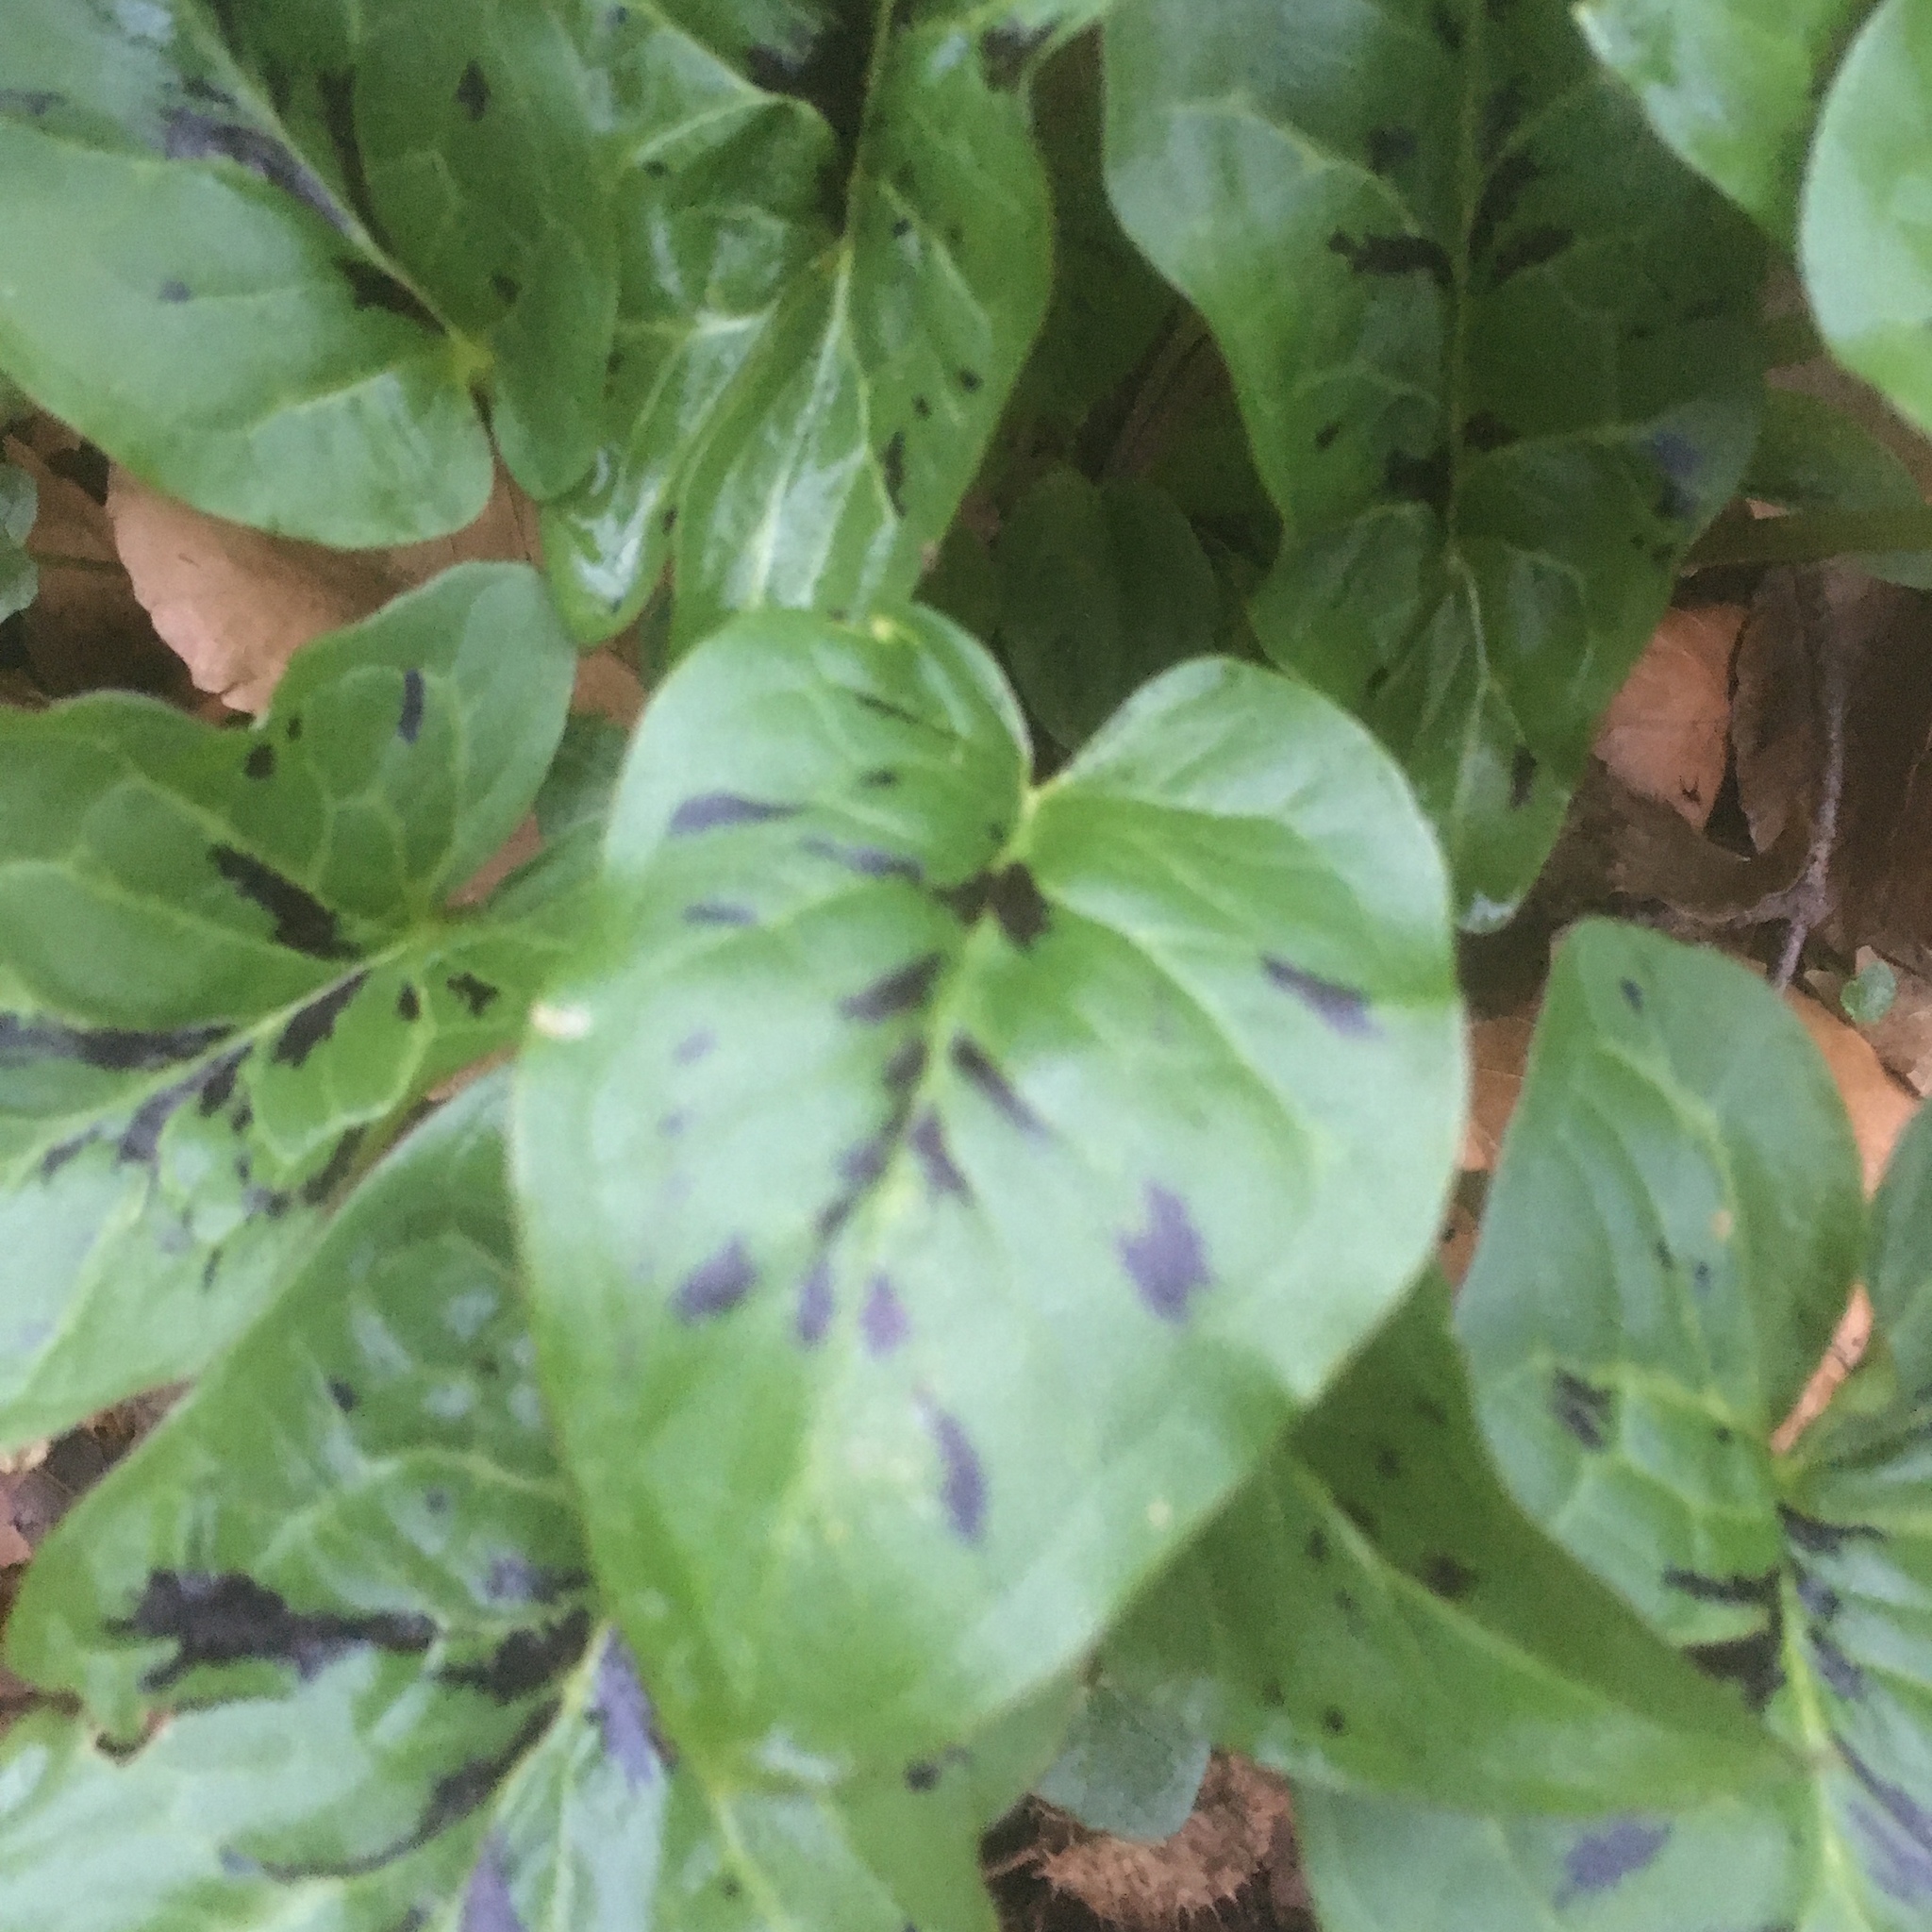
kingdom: Plantae
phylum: Tracheophyta
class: Liliopsida
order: Alismatales
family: Araceae
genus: Arum
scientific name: Arum maculatum
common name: Lords-and-ladies
